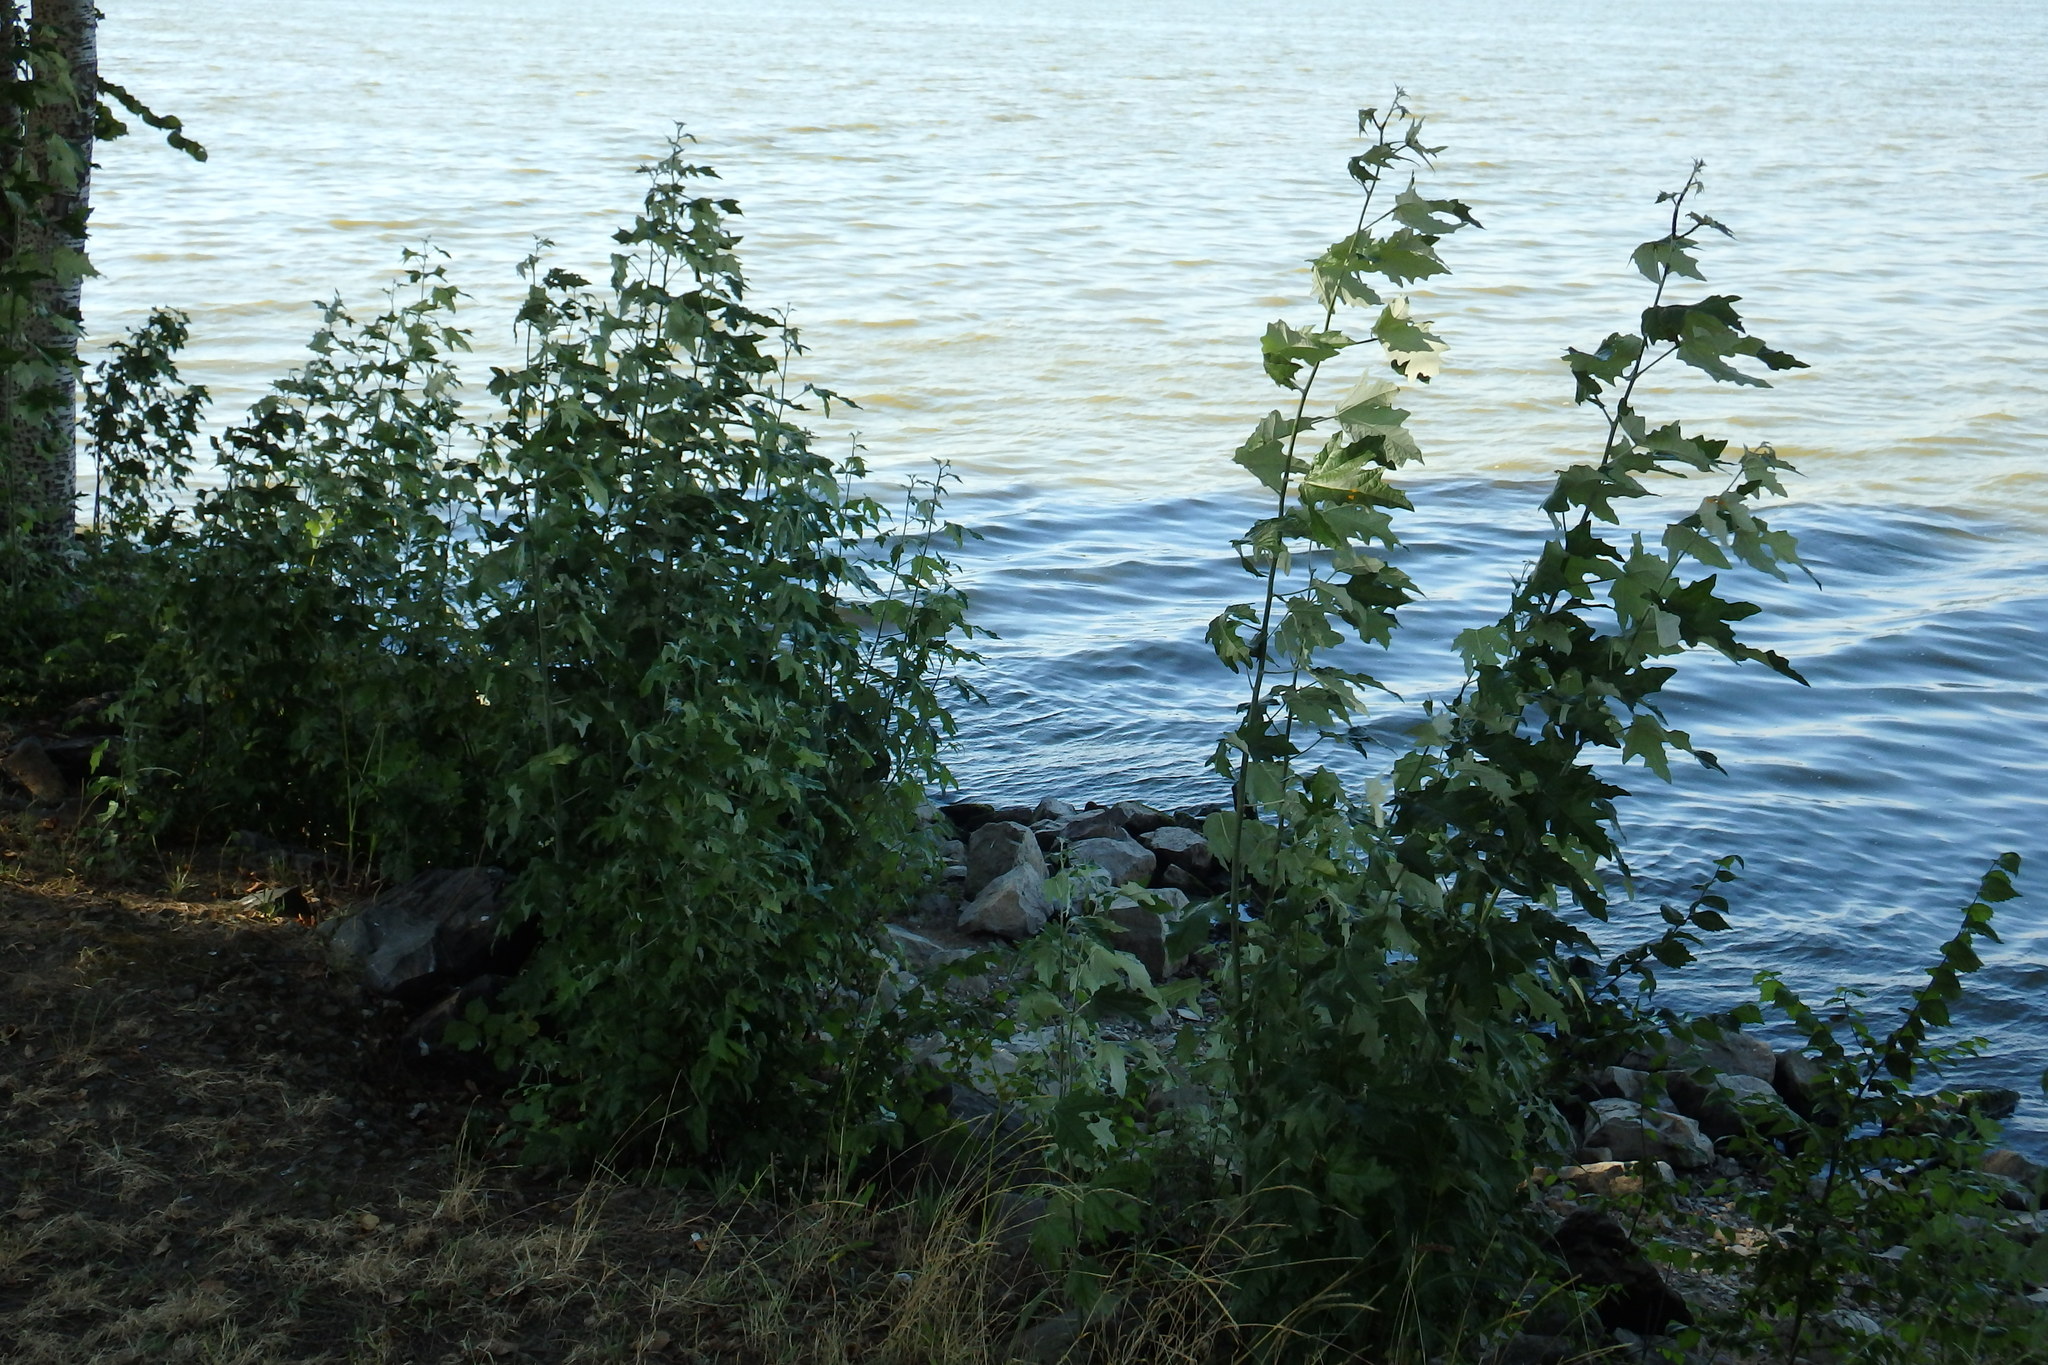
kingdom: Plantae
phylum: Tracheophyta
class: Magnoliopsida
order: Malpighiales
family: Salicaceae
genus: Populus
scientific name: Populus alba
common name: White poplar
